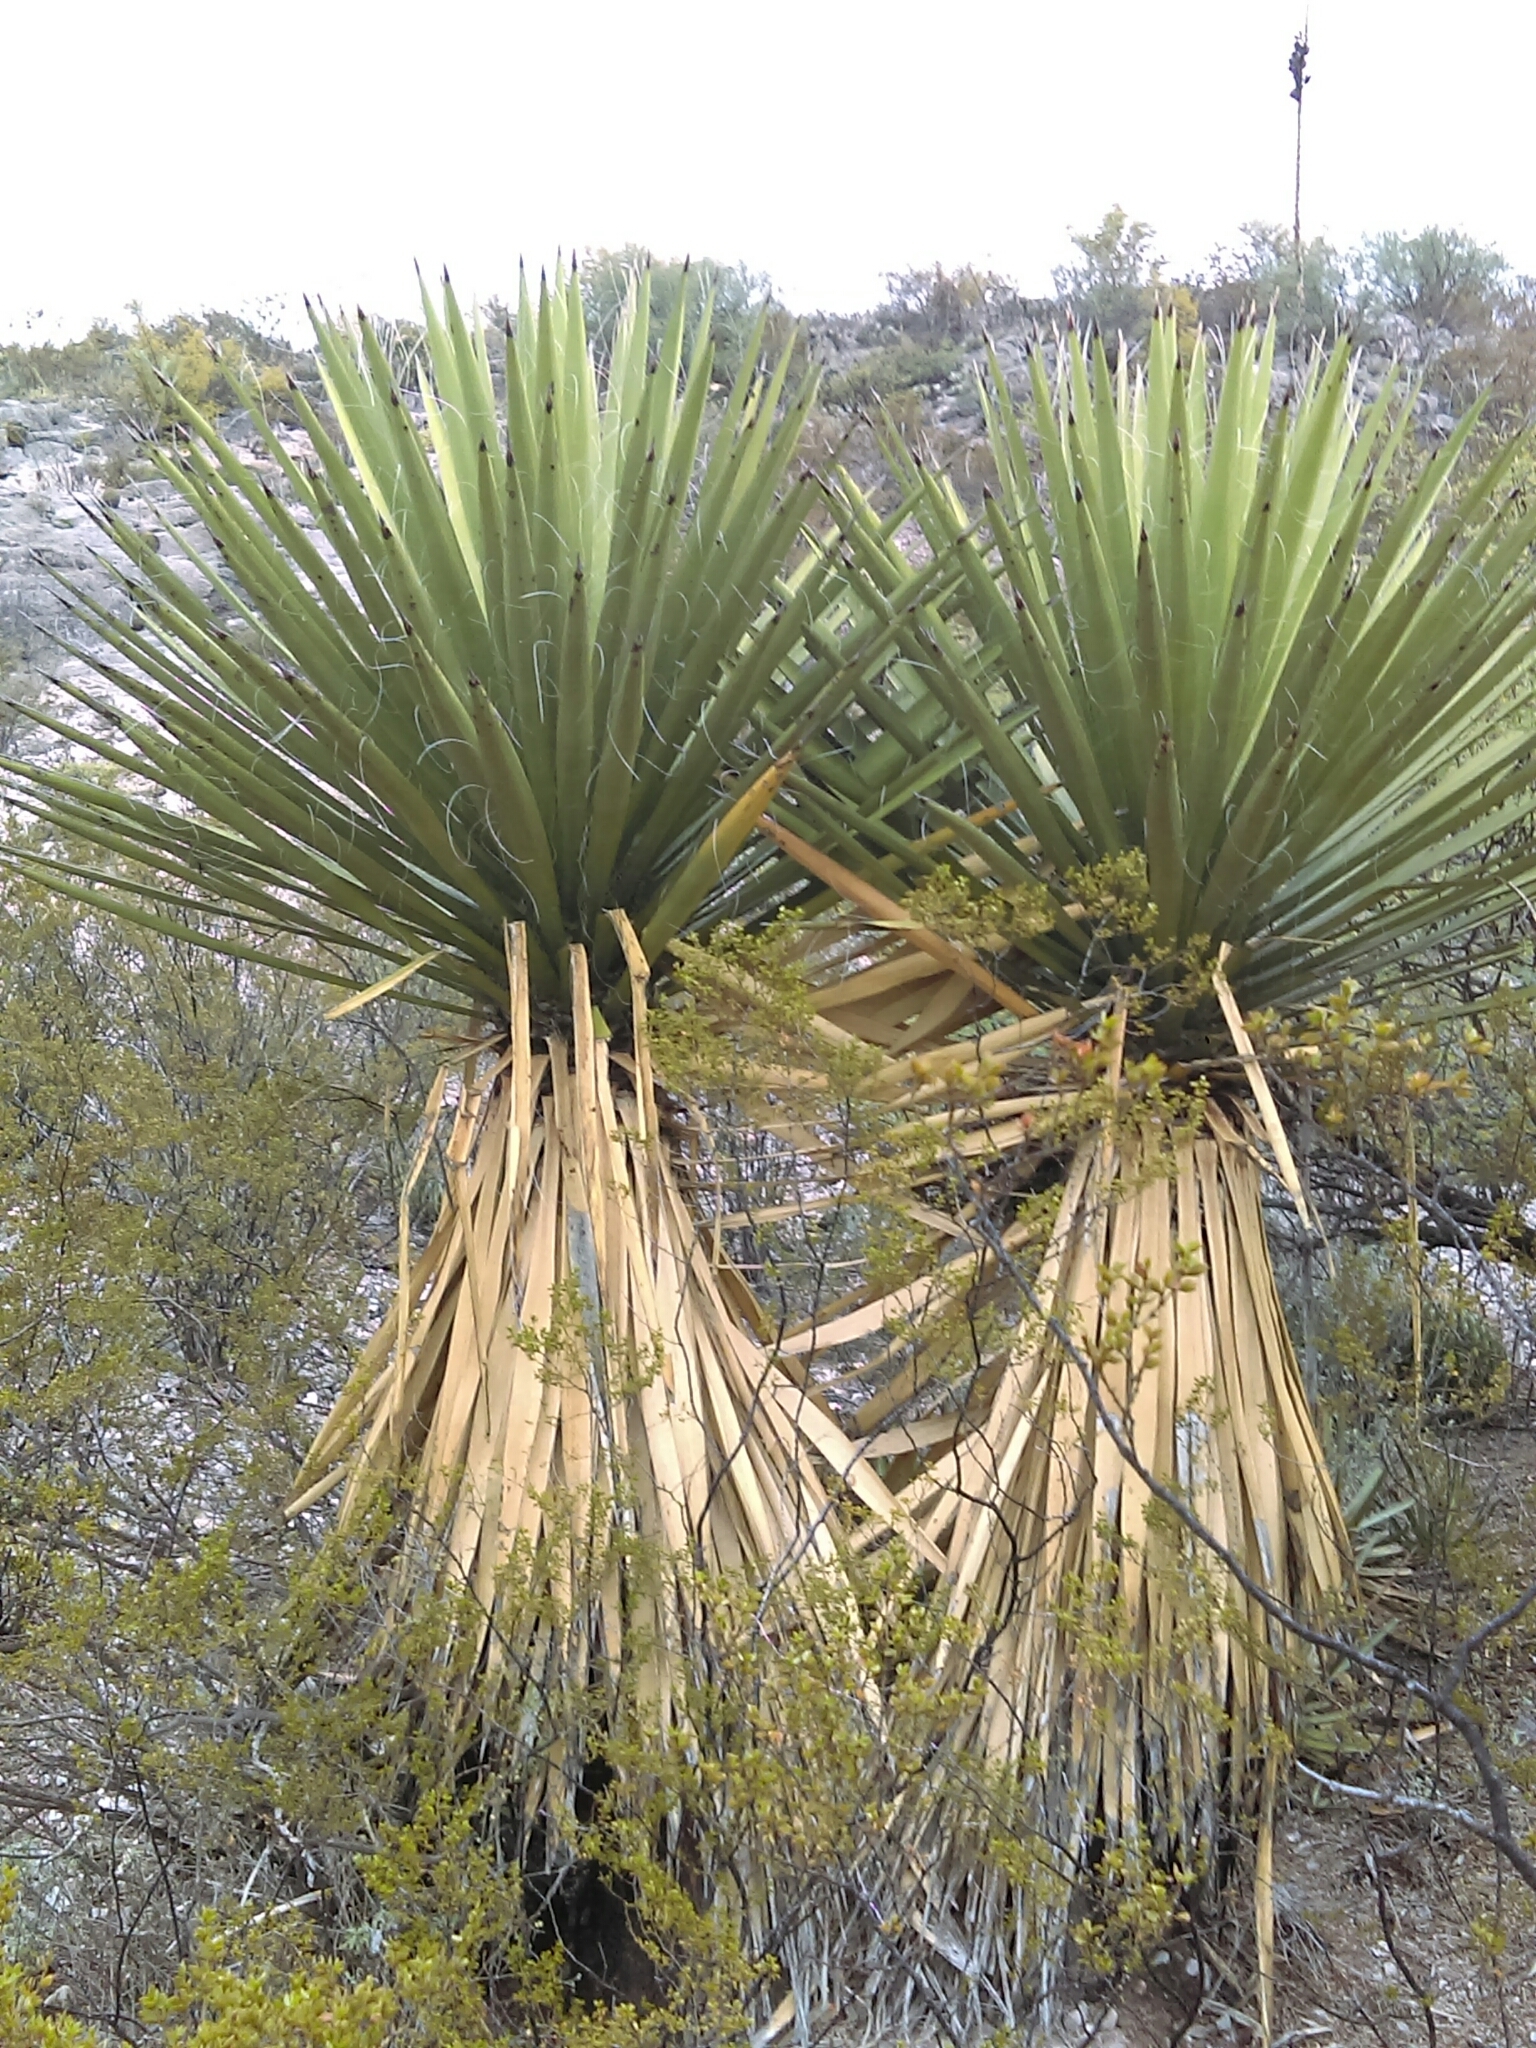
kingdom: Plantae
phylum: Tracheophyta
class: Liliopsida
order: Asparagales
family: Asparagaceae
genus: Yucca
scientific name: Yucca carnerosana
